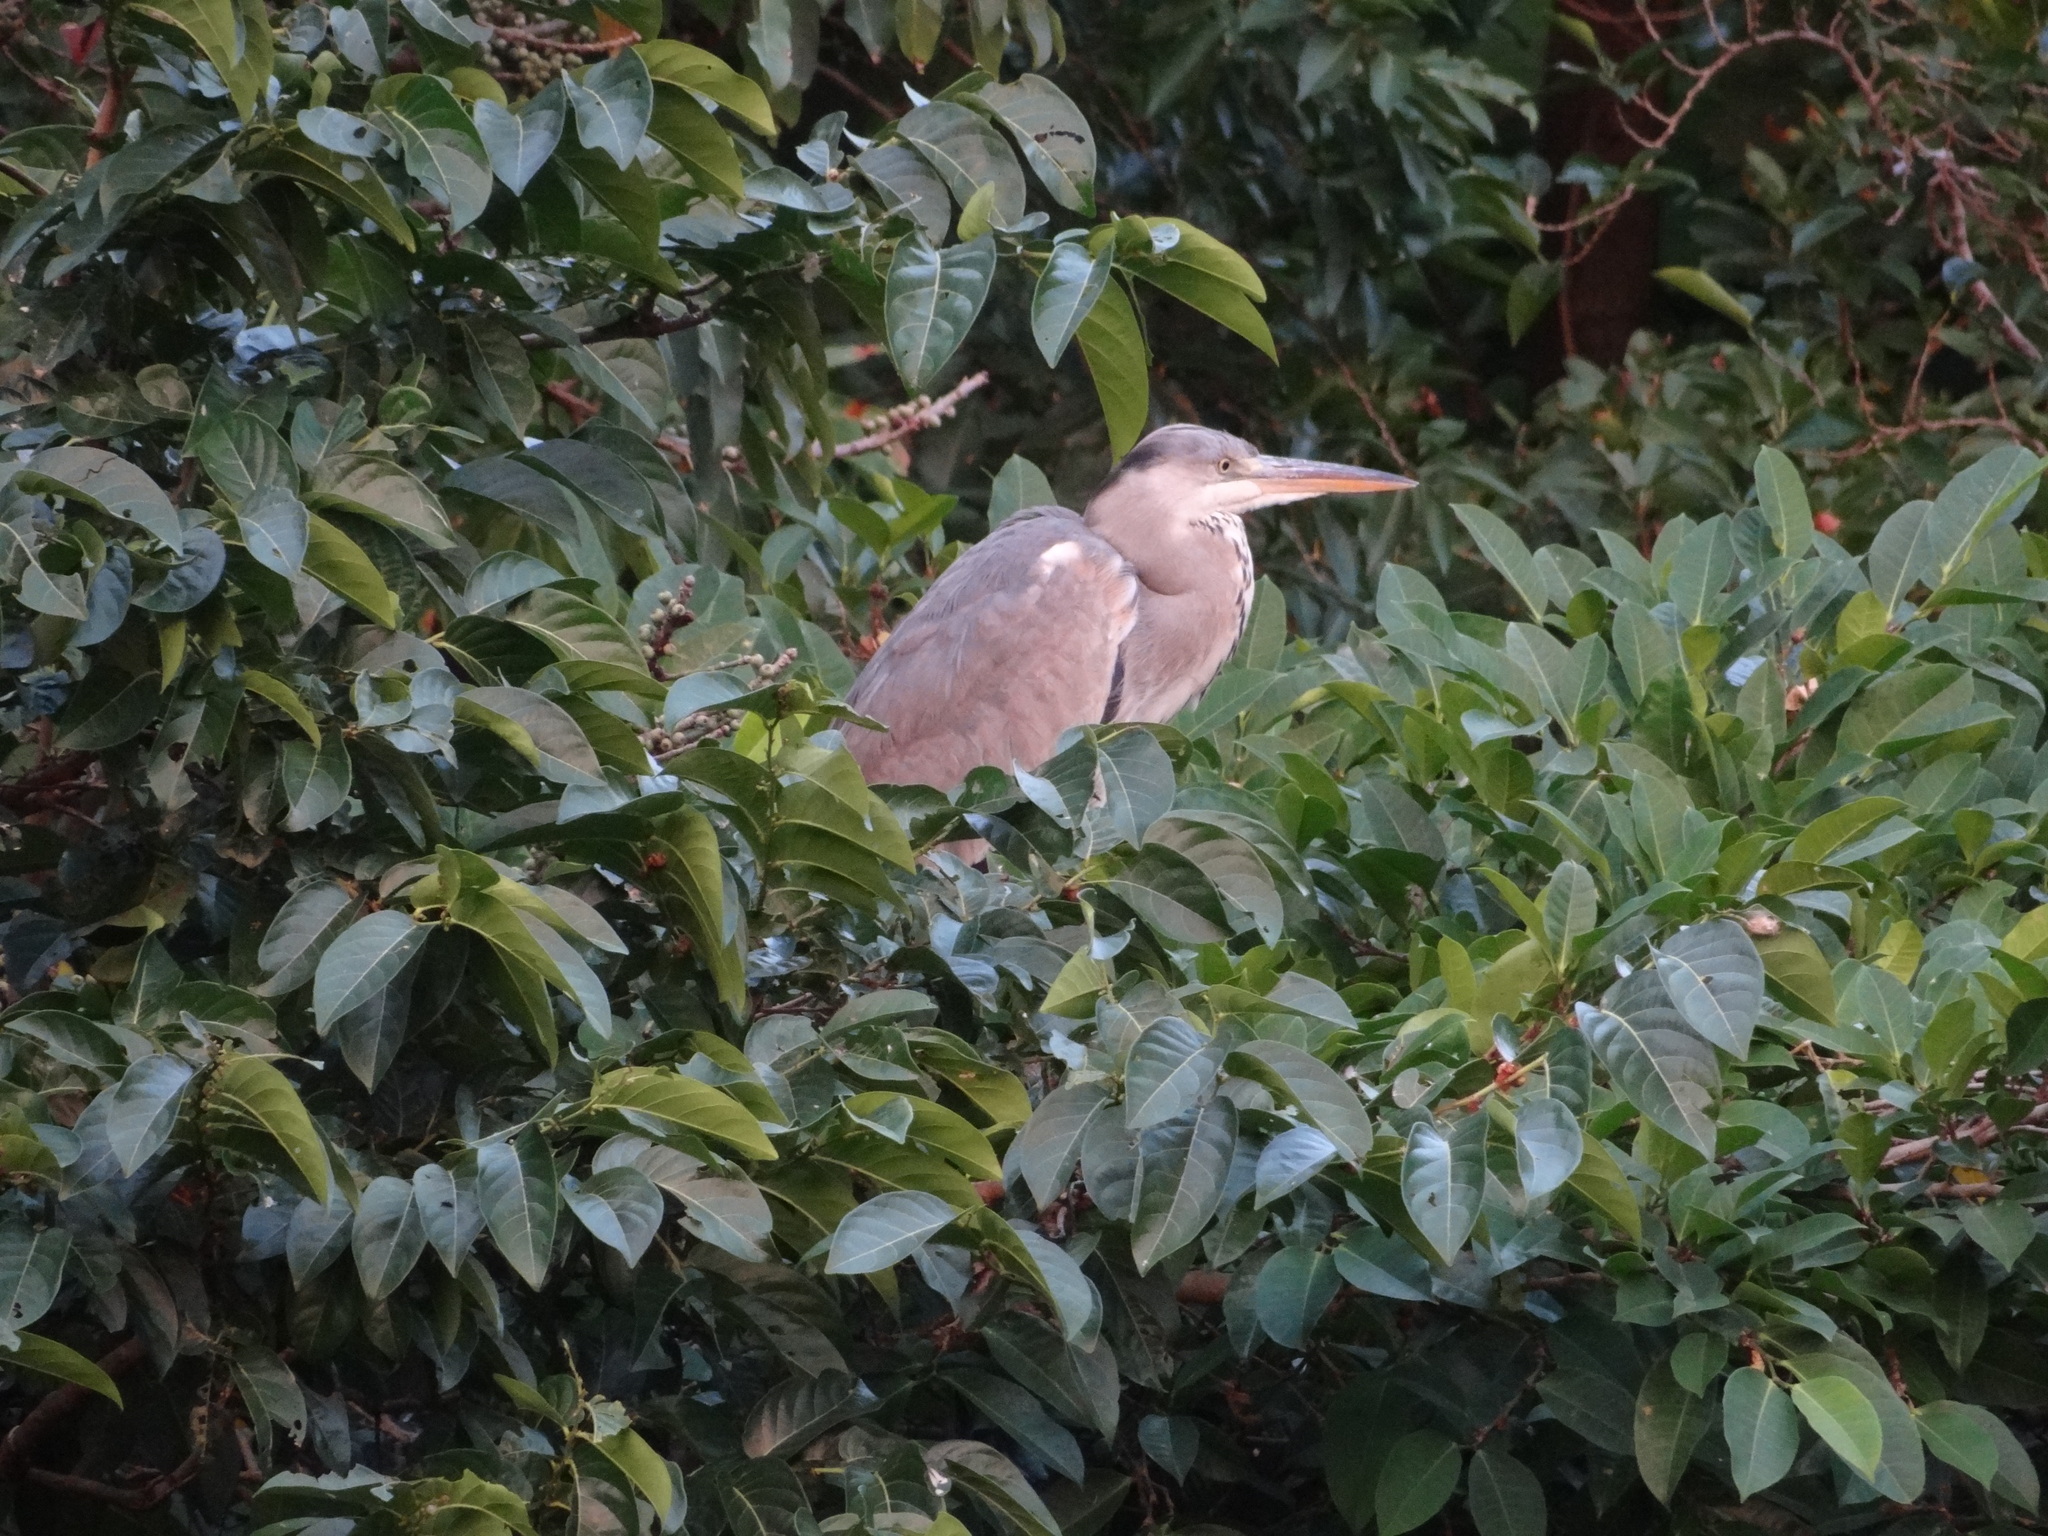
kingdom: Animalia
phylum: Chordata
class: Aves
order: Pelecaniformes
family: Ardeidae
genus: Ardea
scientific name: Ardea cinerea
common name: Grey heron
